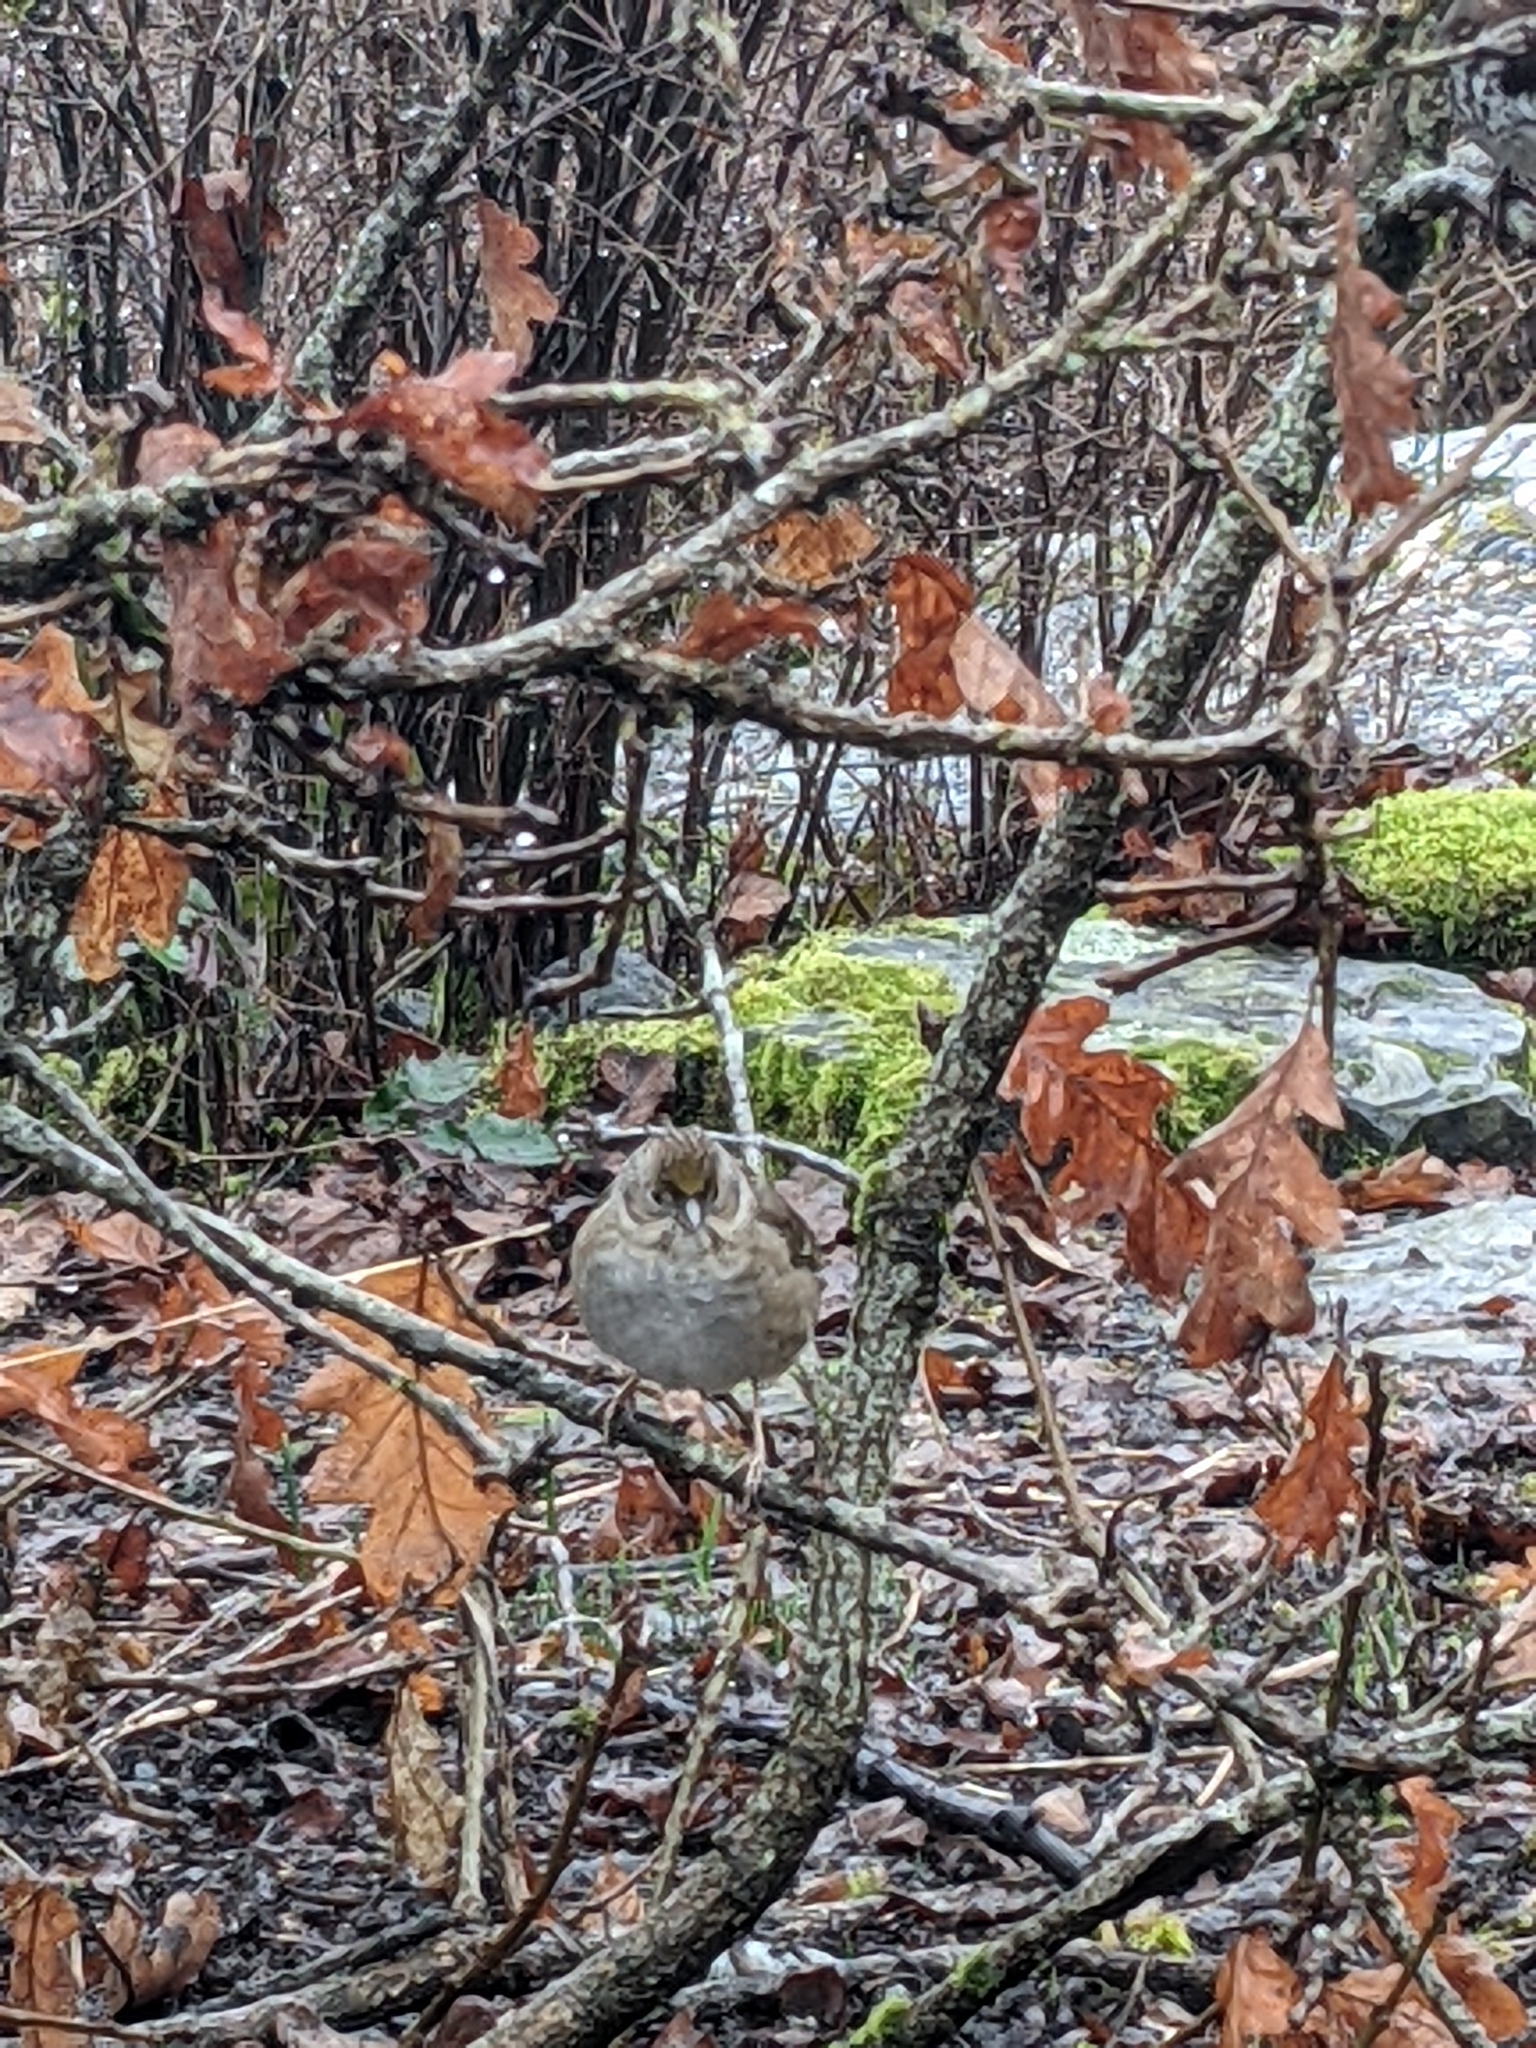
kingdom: Animalia
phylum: Chordata
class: Aves
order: Passeriformes
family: Passerellidae
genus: Zonotrichia
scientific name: Zonotrichia atricapilla
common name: Golden-crowned sparrow
